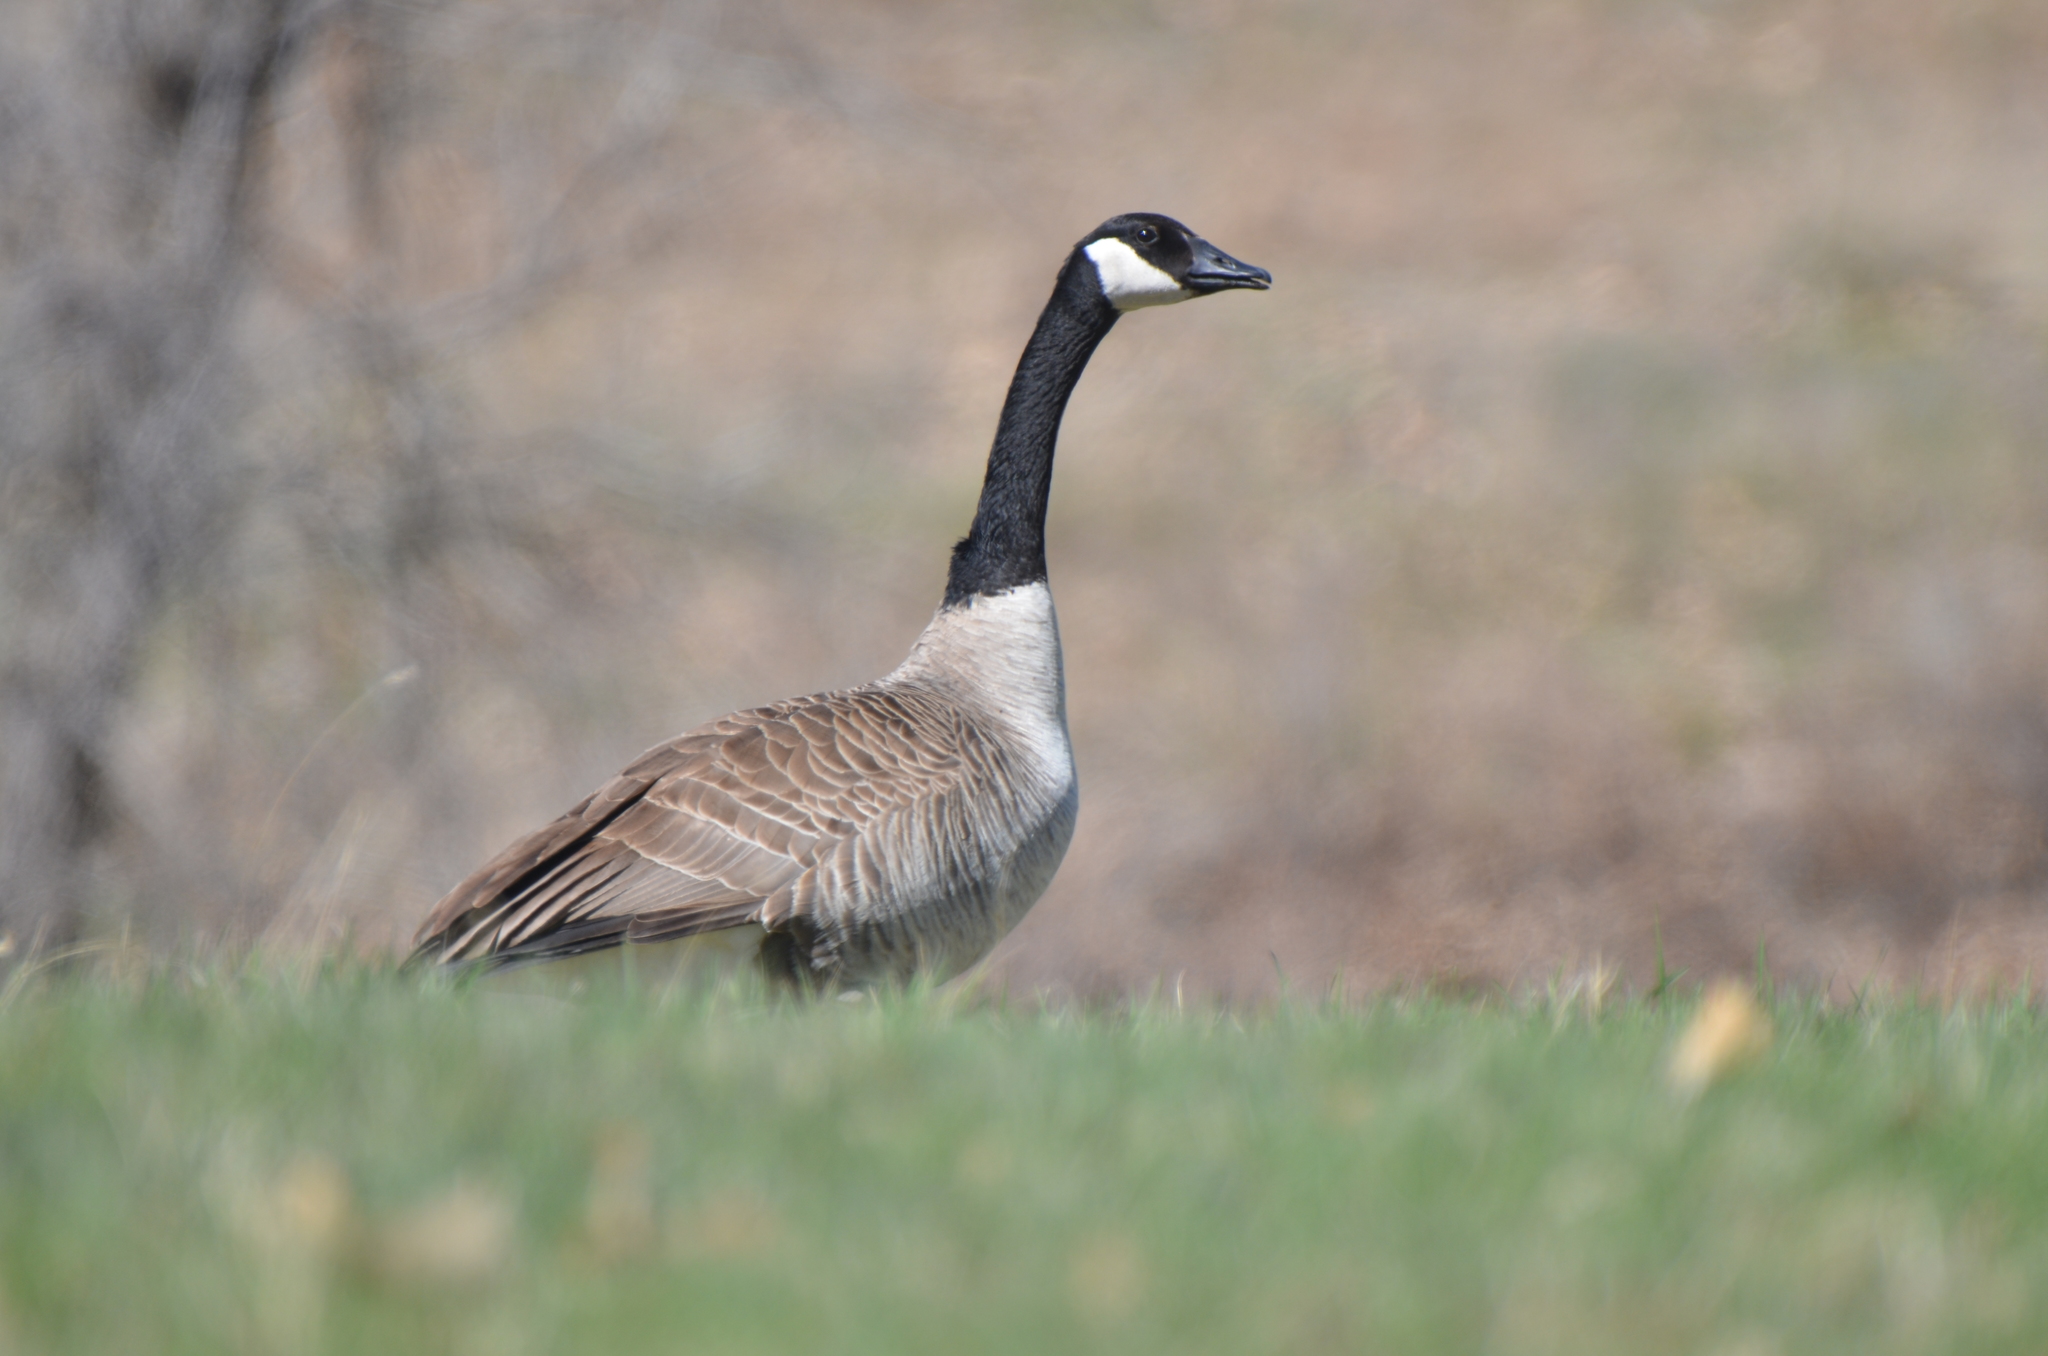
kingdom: Animalia
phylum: Chordata
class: Aves
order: Anseriformes
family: Anatidae
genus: Branta
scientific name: Branta canadensis
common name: Canada goose
